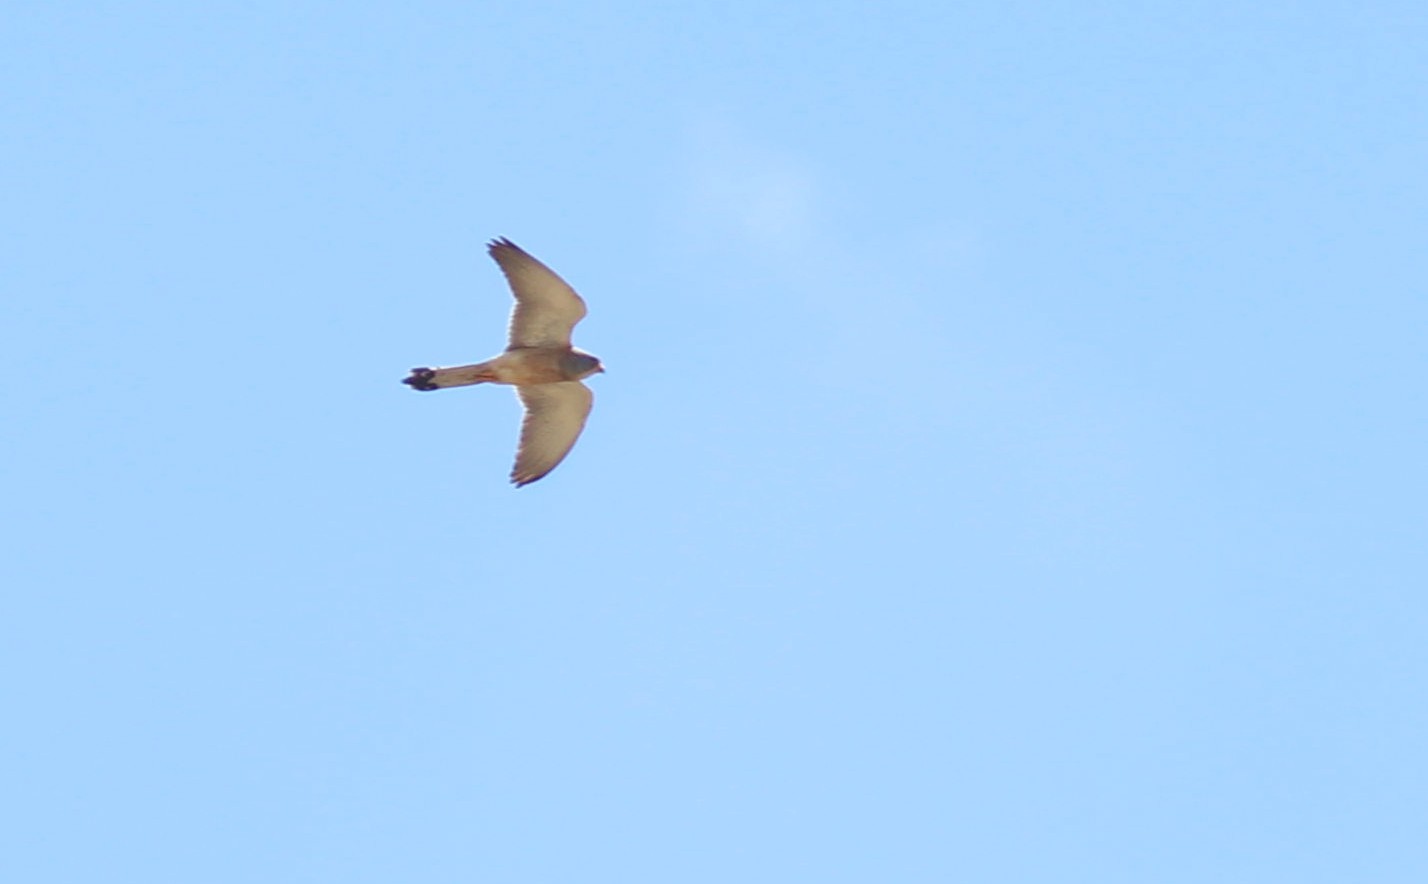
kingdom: Animalia
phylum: Chordata
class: Aves
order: Falconiformes
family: Falconidae
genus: Falco
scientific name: Falco naumanni
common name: Lesser kestrel
